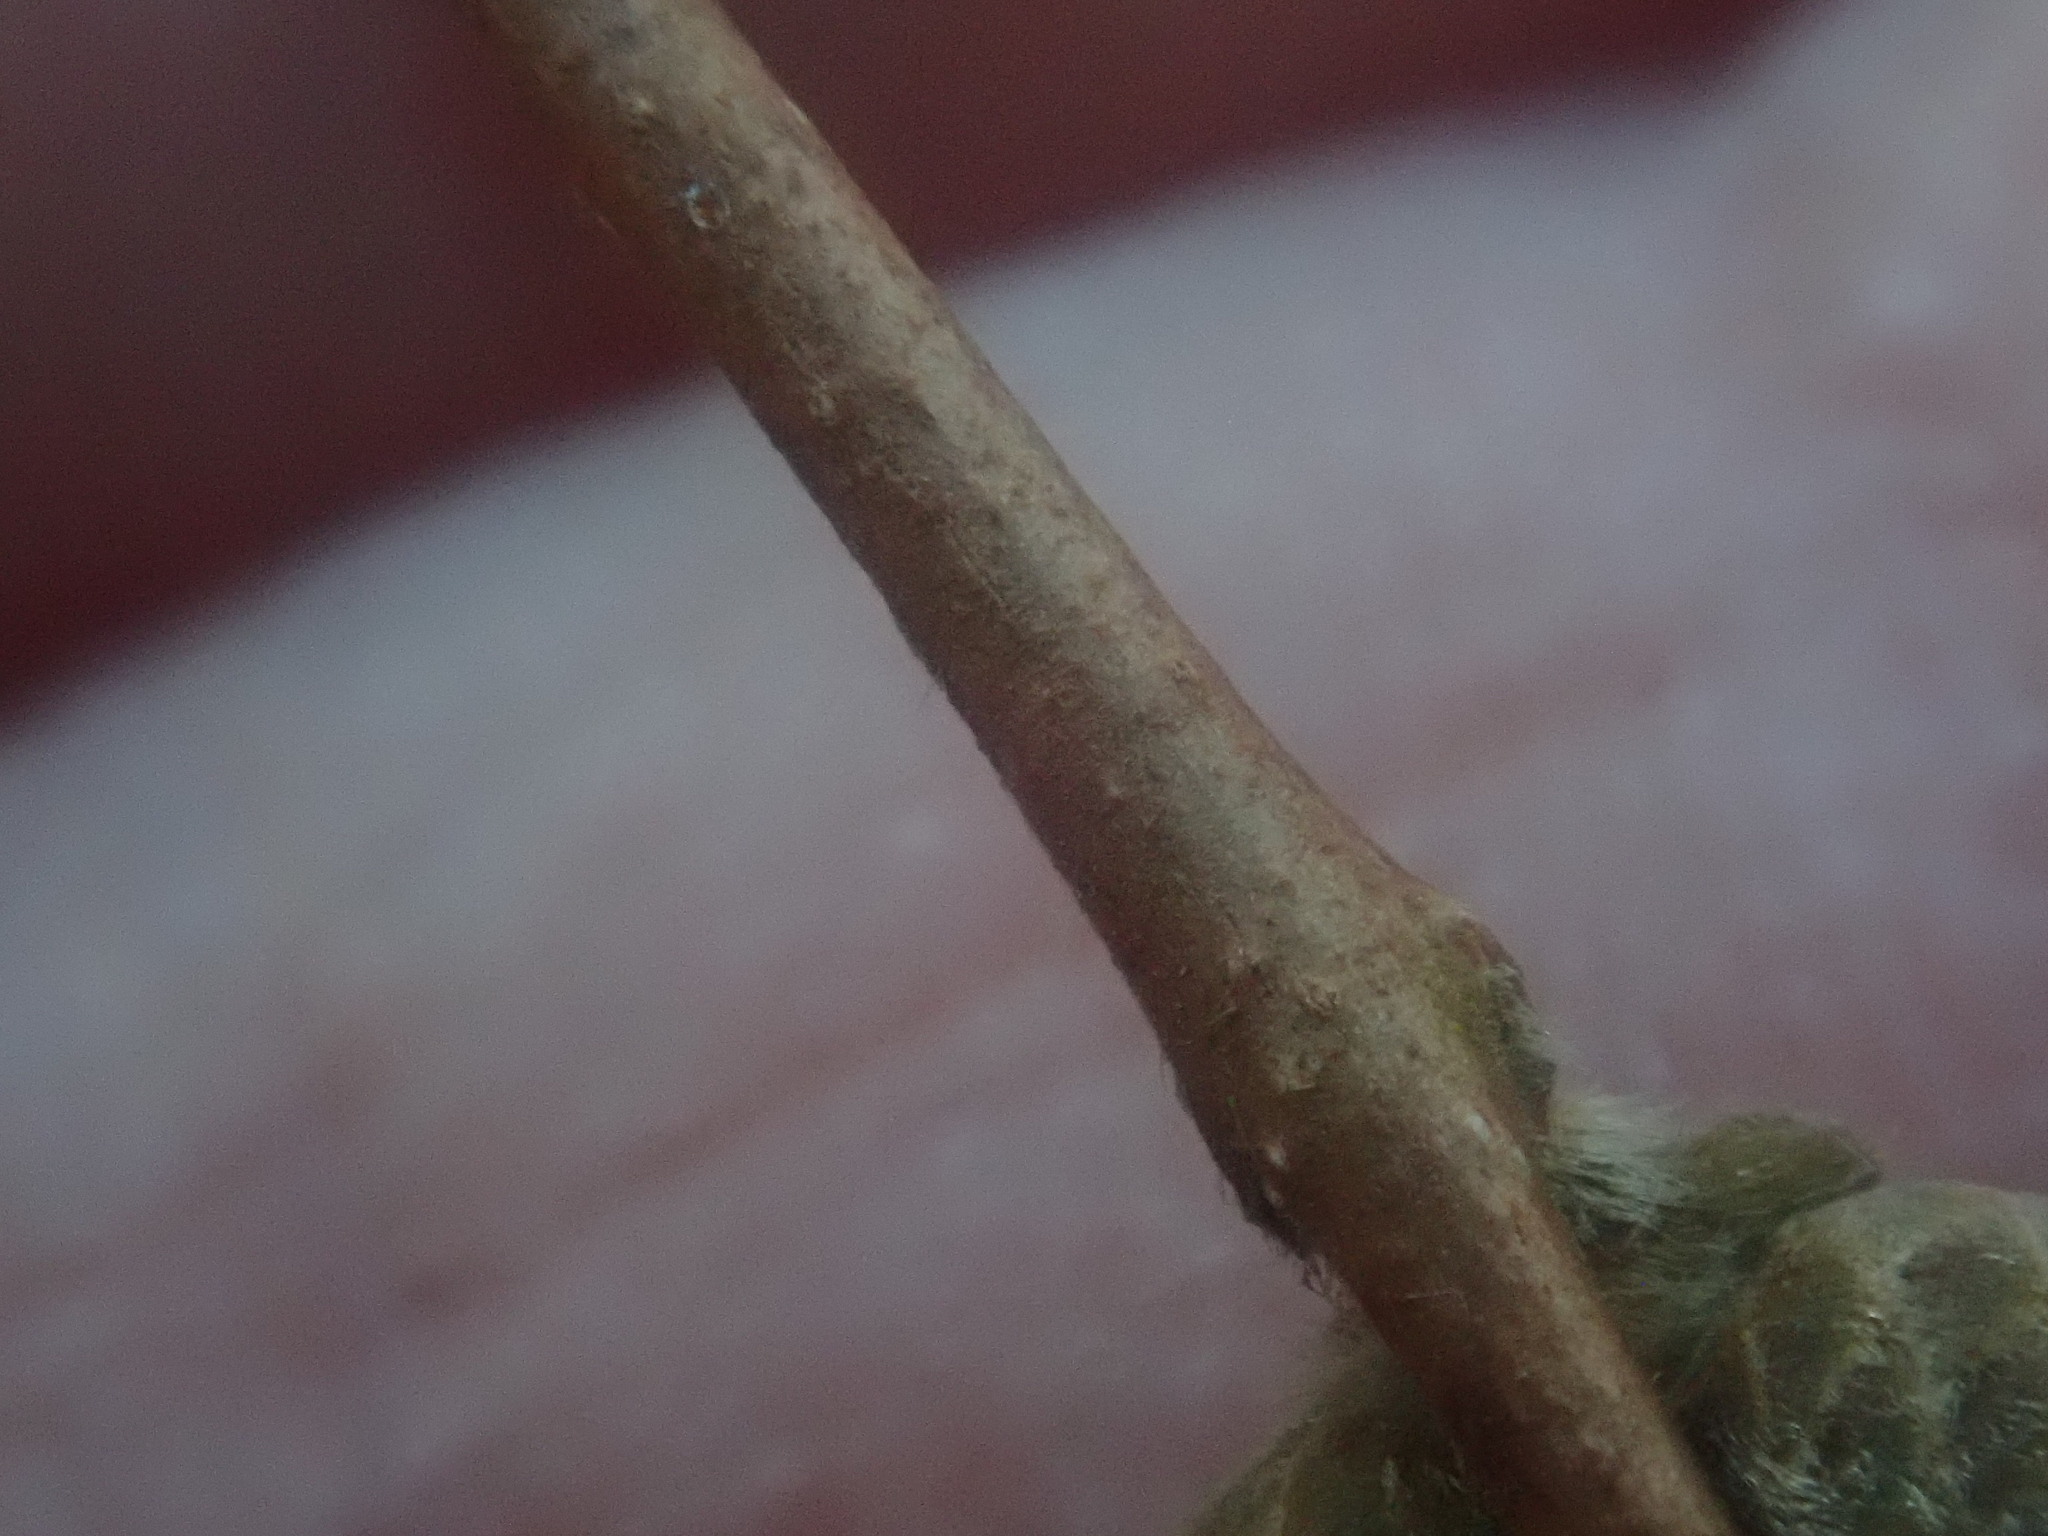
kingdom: Plantae
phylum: Tracheophyta
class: Magnoliopsida
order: Fagales
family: Betulaceae
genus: Corylus
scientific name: Corylus cornuta
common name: Beaked hazel
